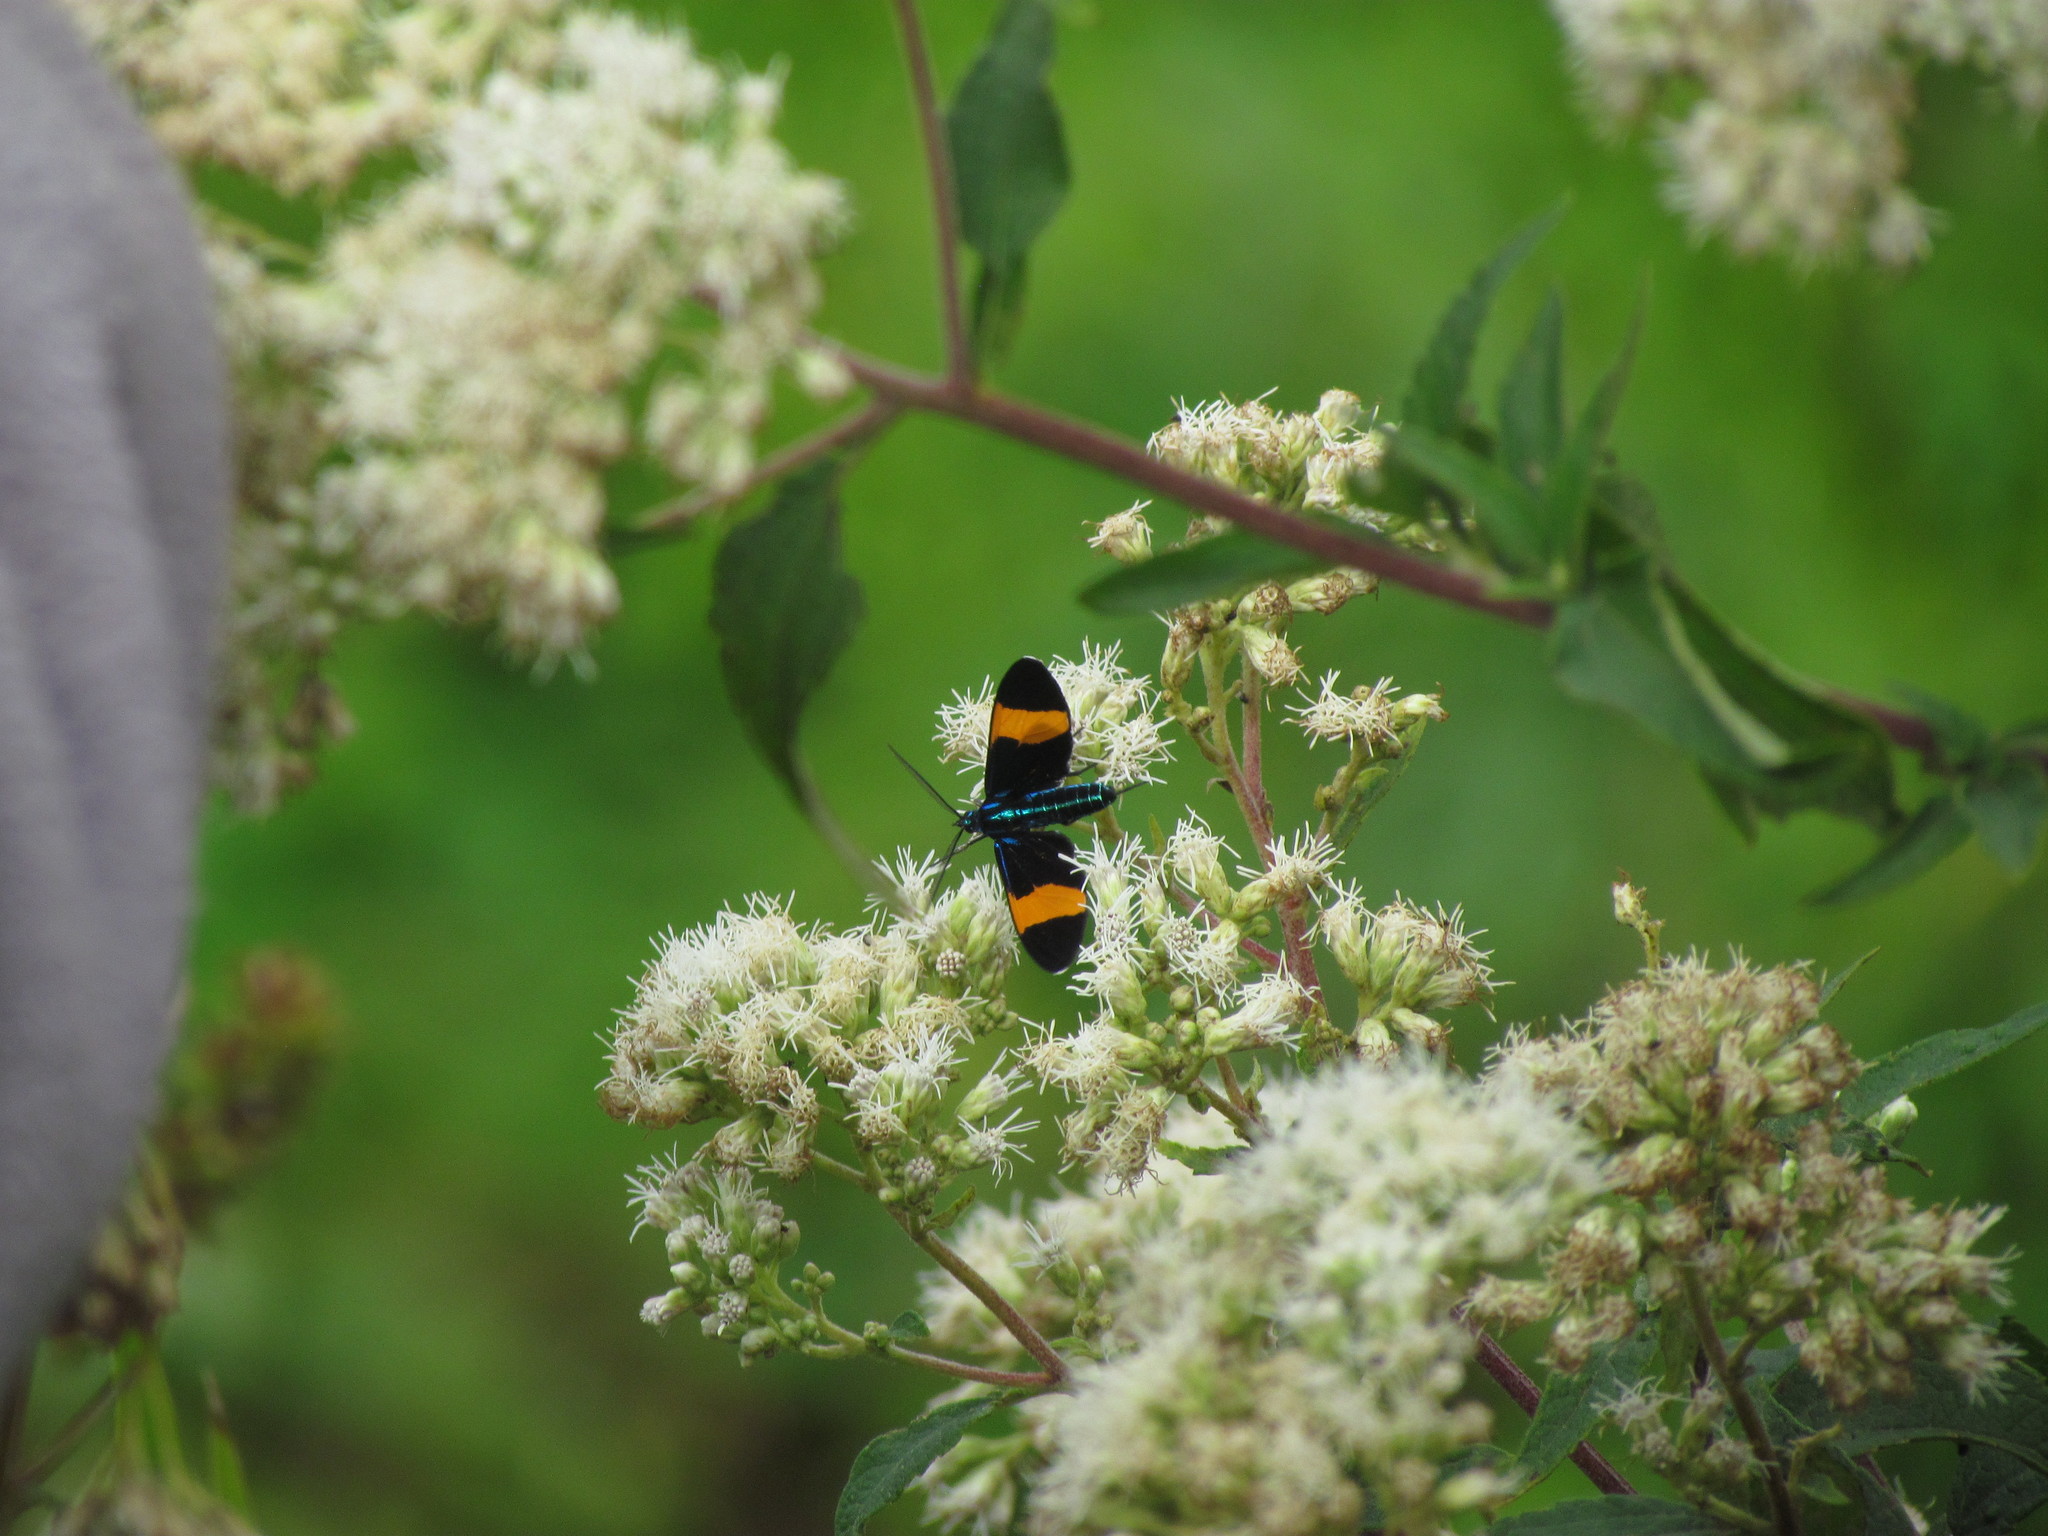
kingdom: Animalia
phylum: Arthropoda
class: Insecta
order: Lepidoptera
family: Erebidae
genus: Cyanopepla
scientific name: Cyanopepla similis
